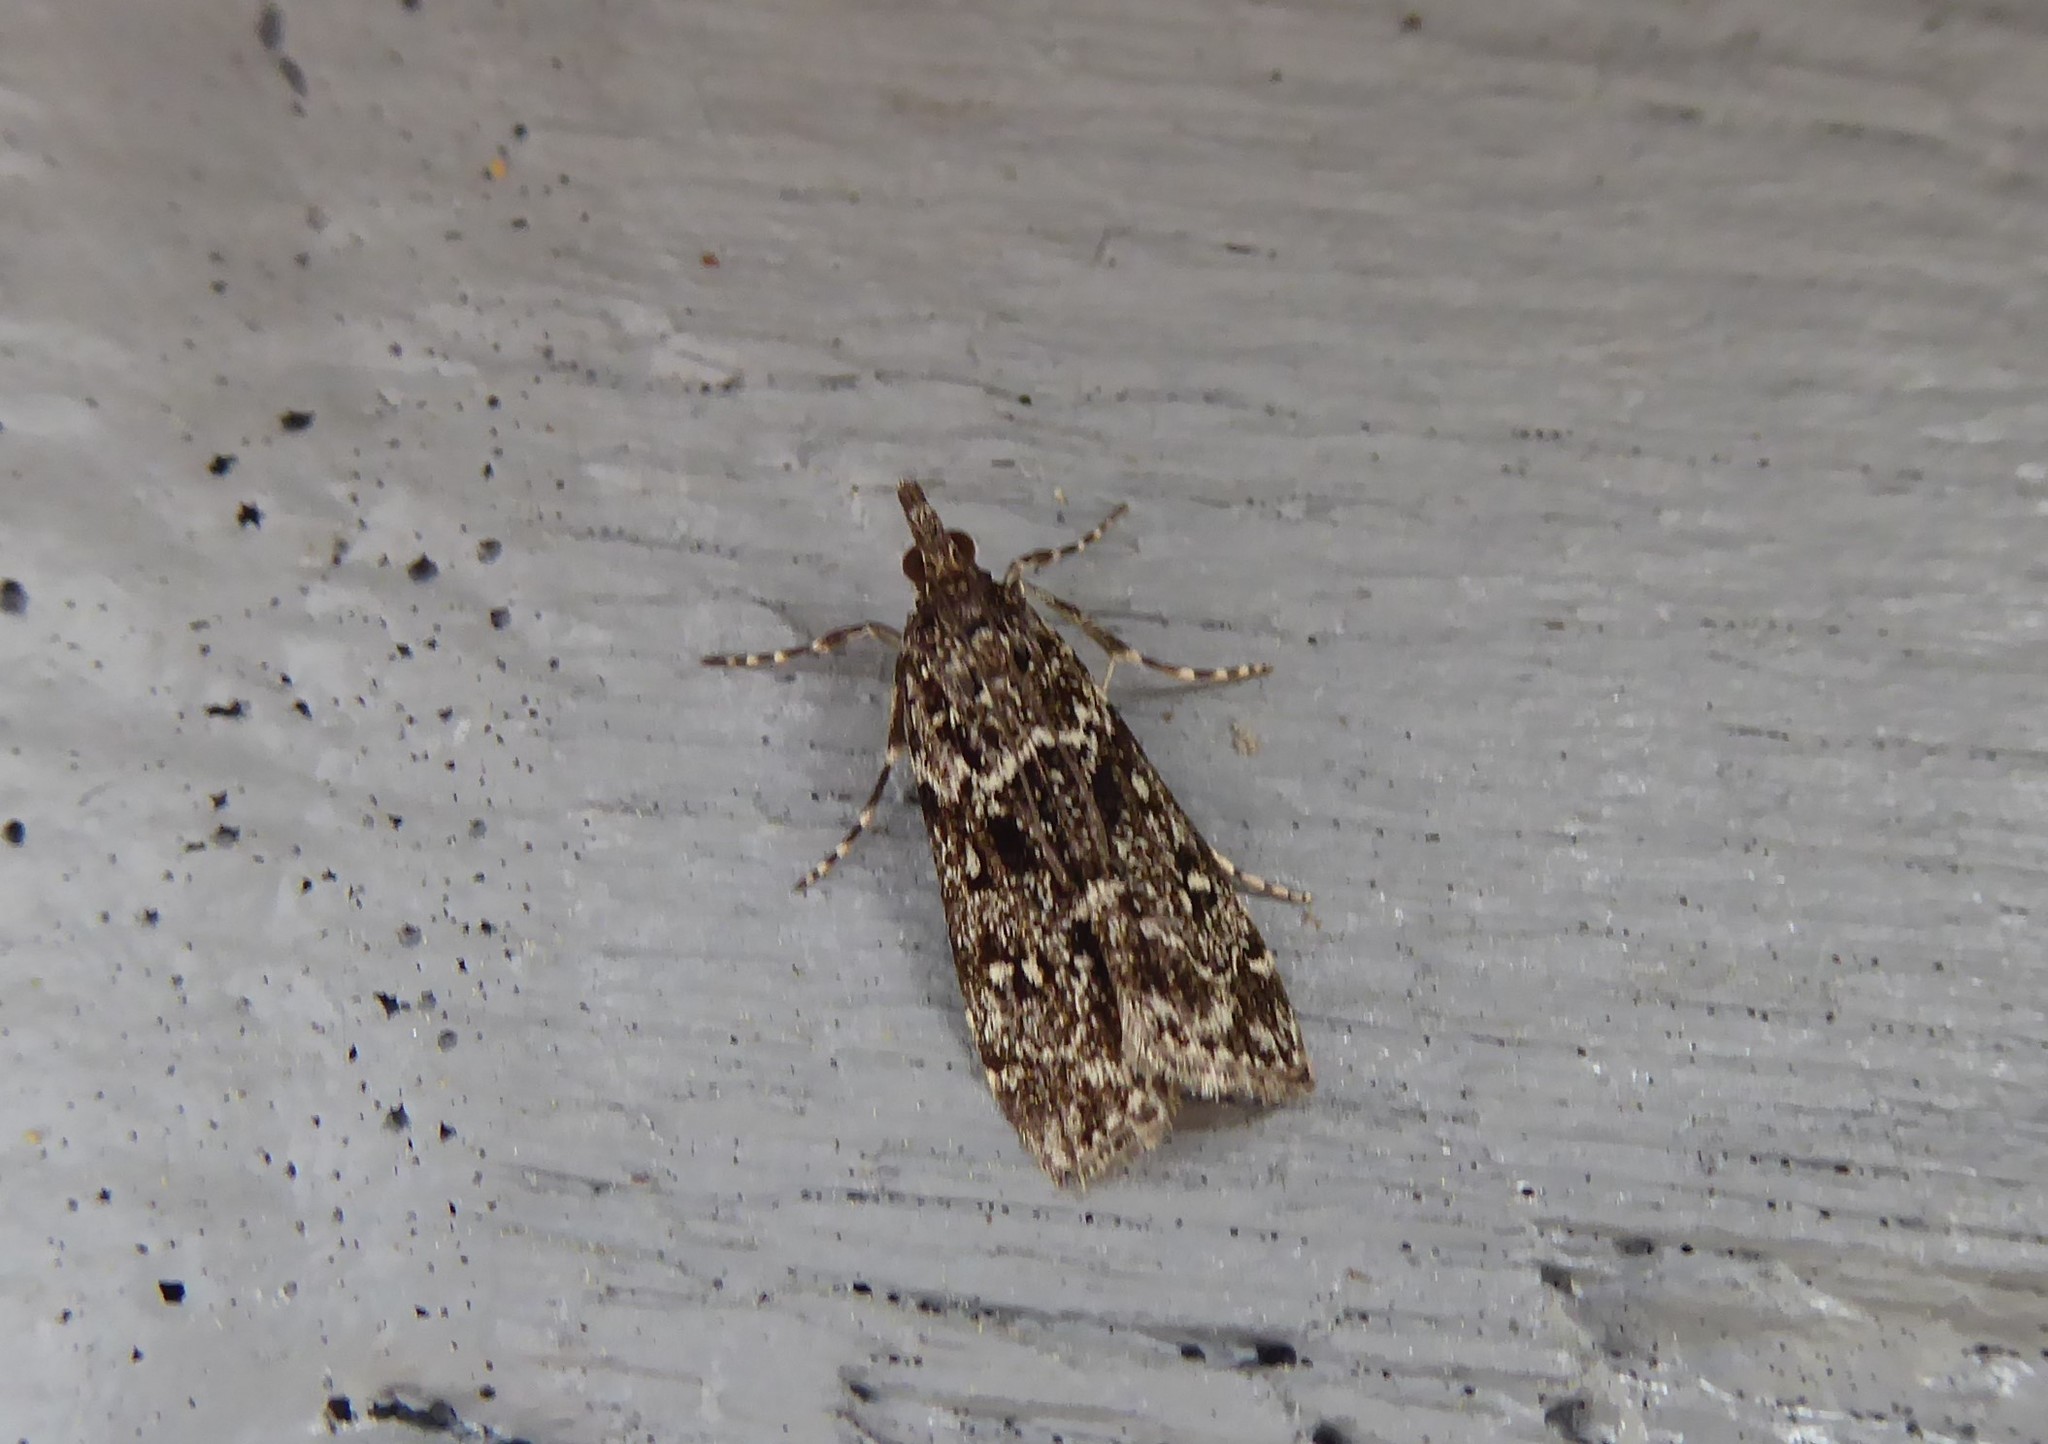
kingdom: Animalia
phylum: Arthropoda
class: Insecta
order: Lepidoptera
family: Crambidae
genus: Eudonia
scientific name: Eudonia philerga
